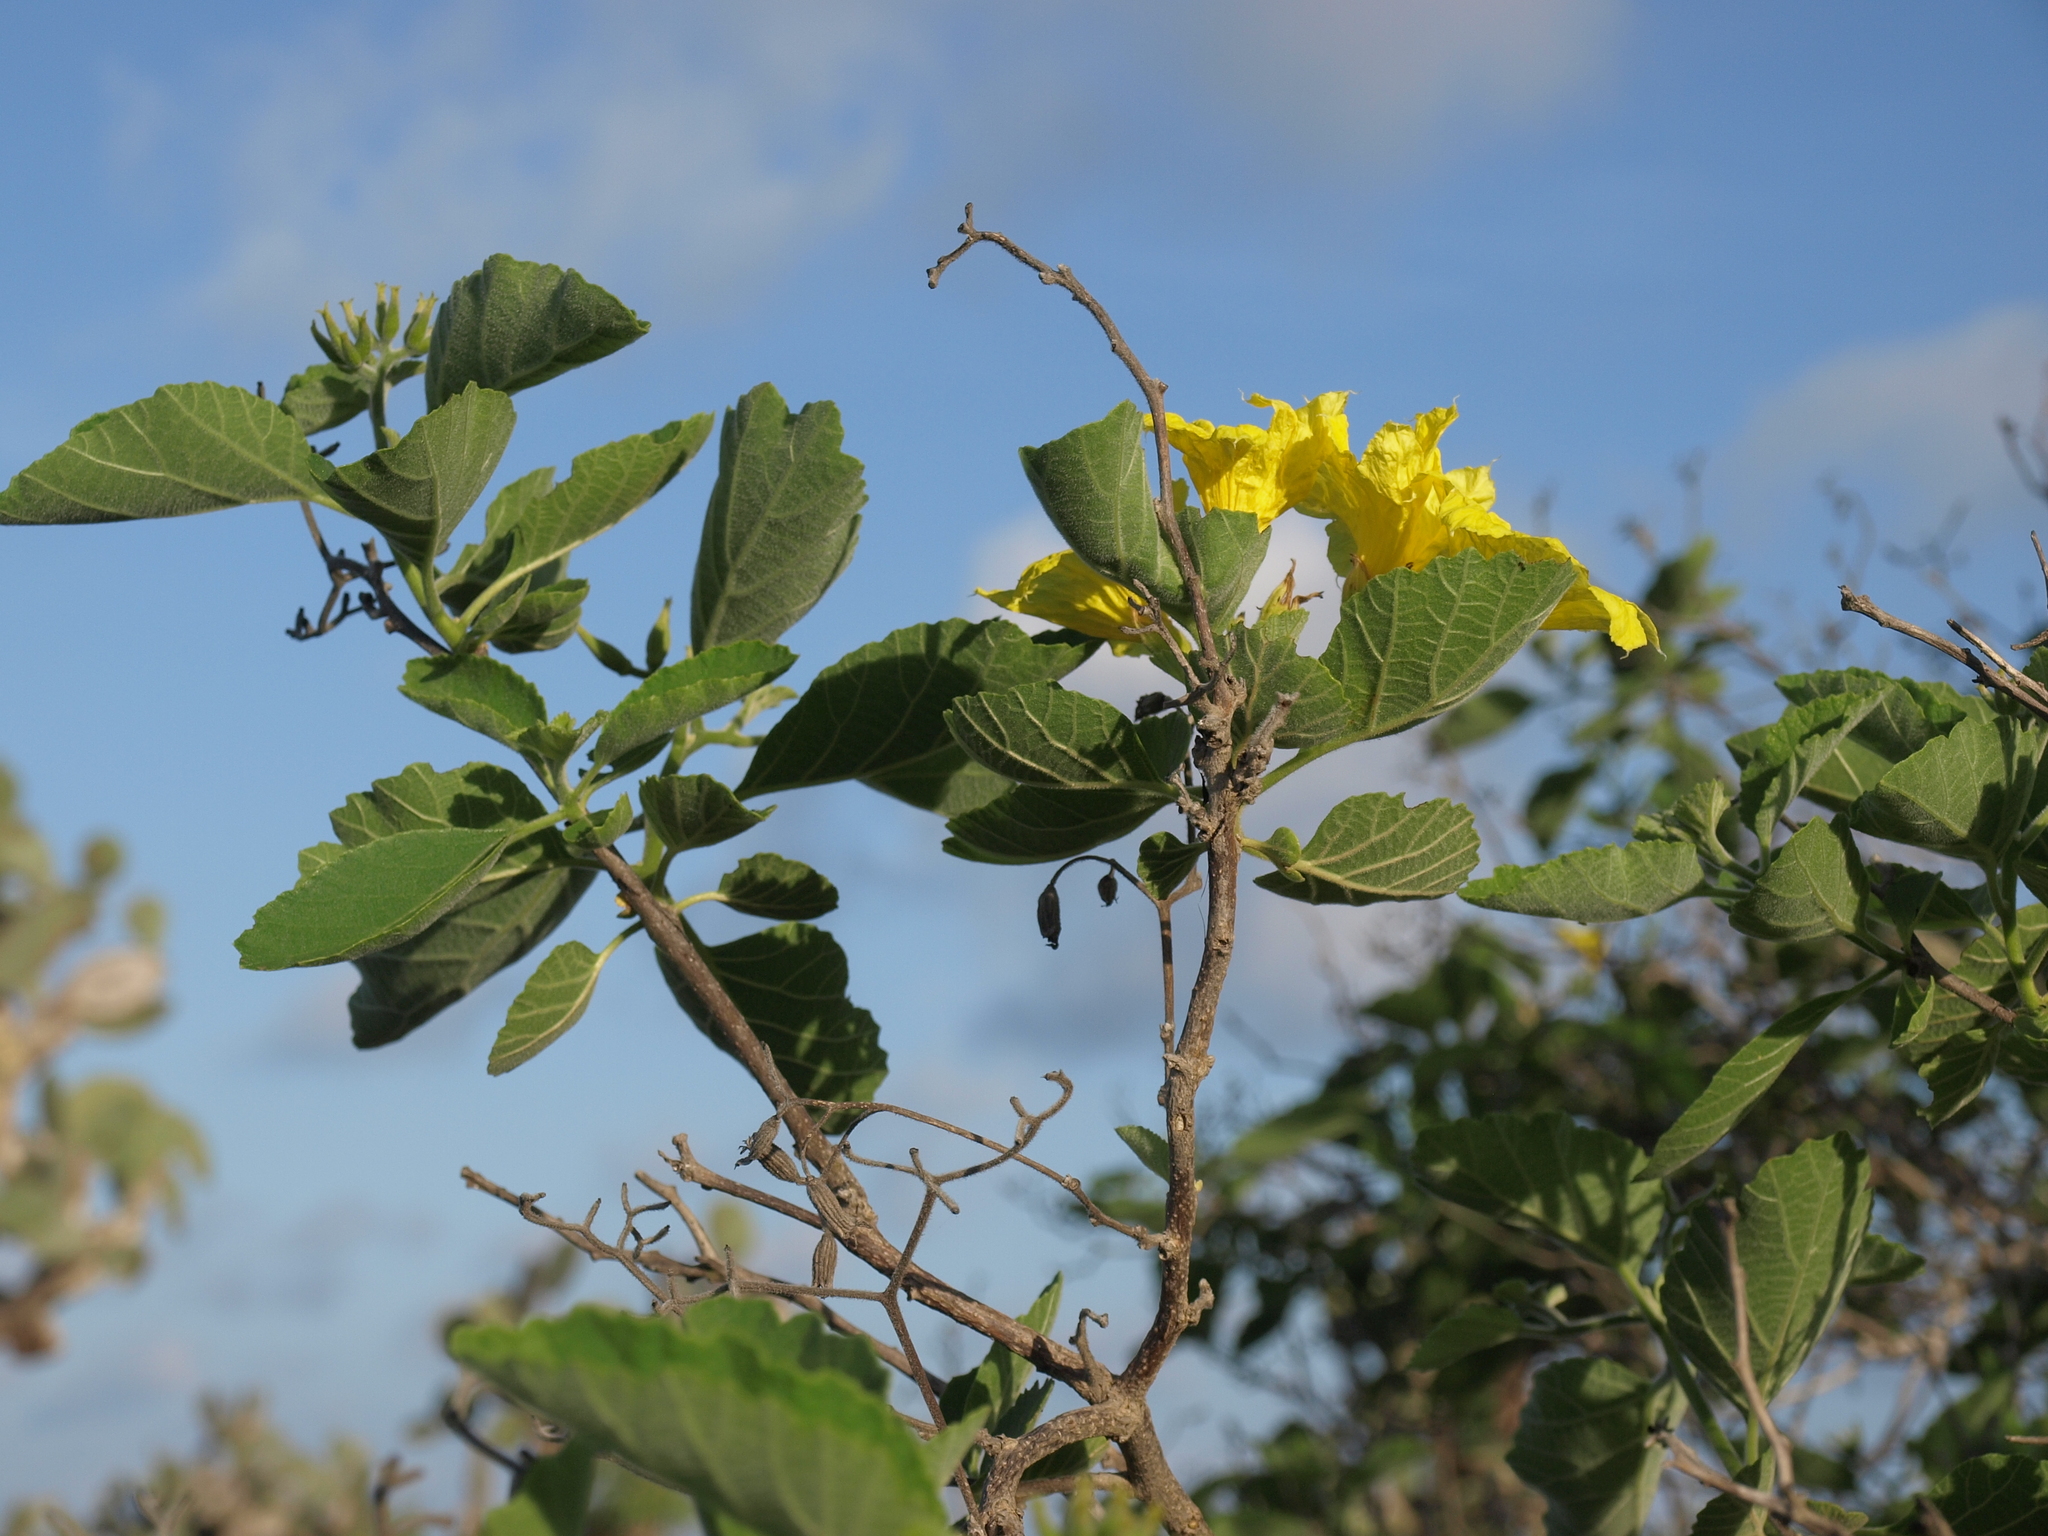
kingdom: Plantae
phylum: Tracheophyta
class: Magnoliopsida
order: Boraginales
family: Cordiaceae
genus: Cordia
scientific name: Cordia lutea
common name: Yellow geiger
